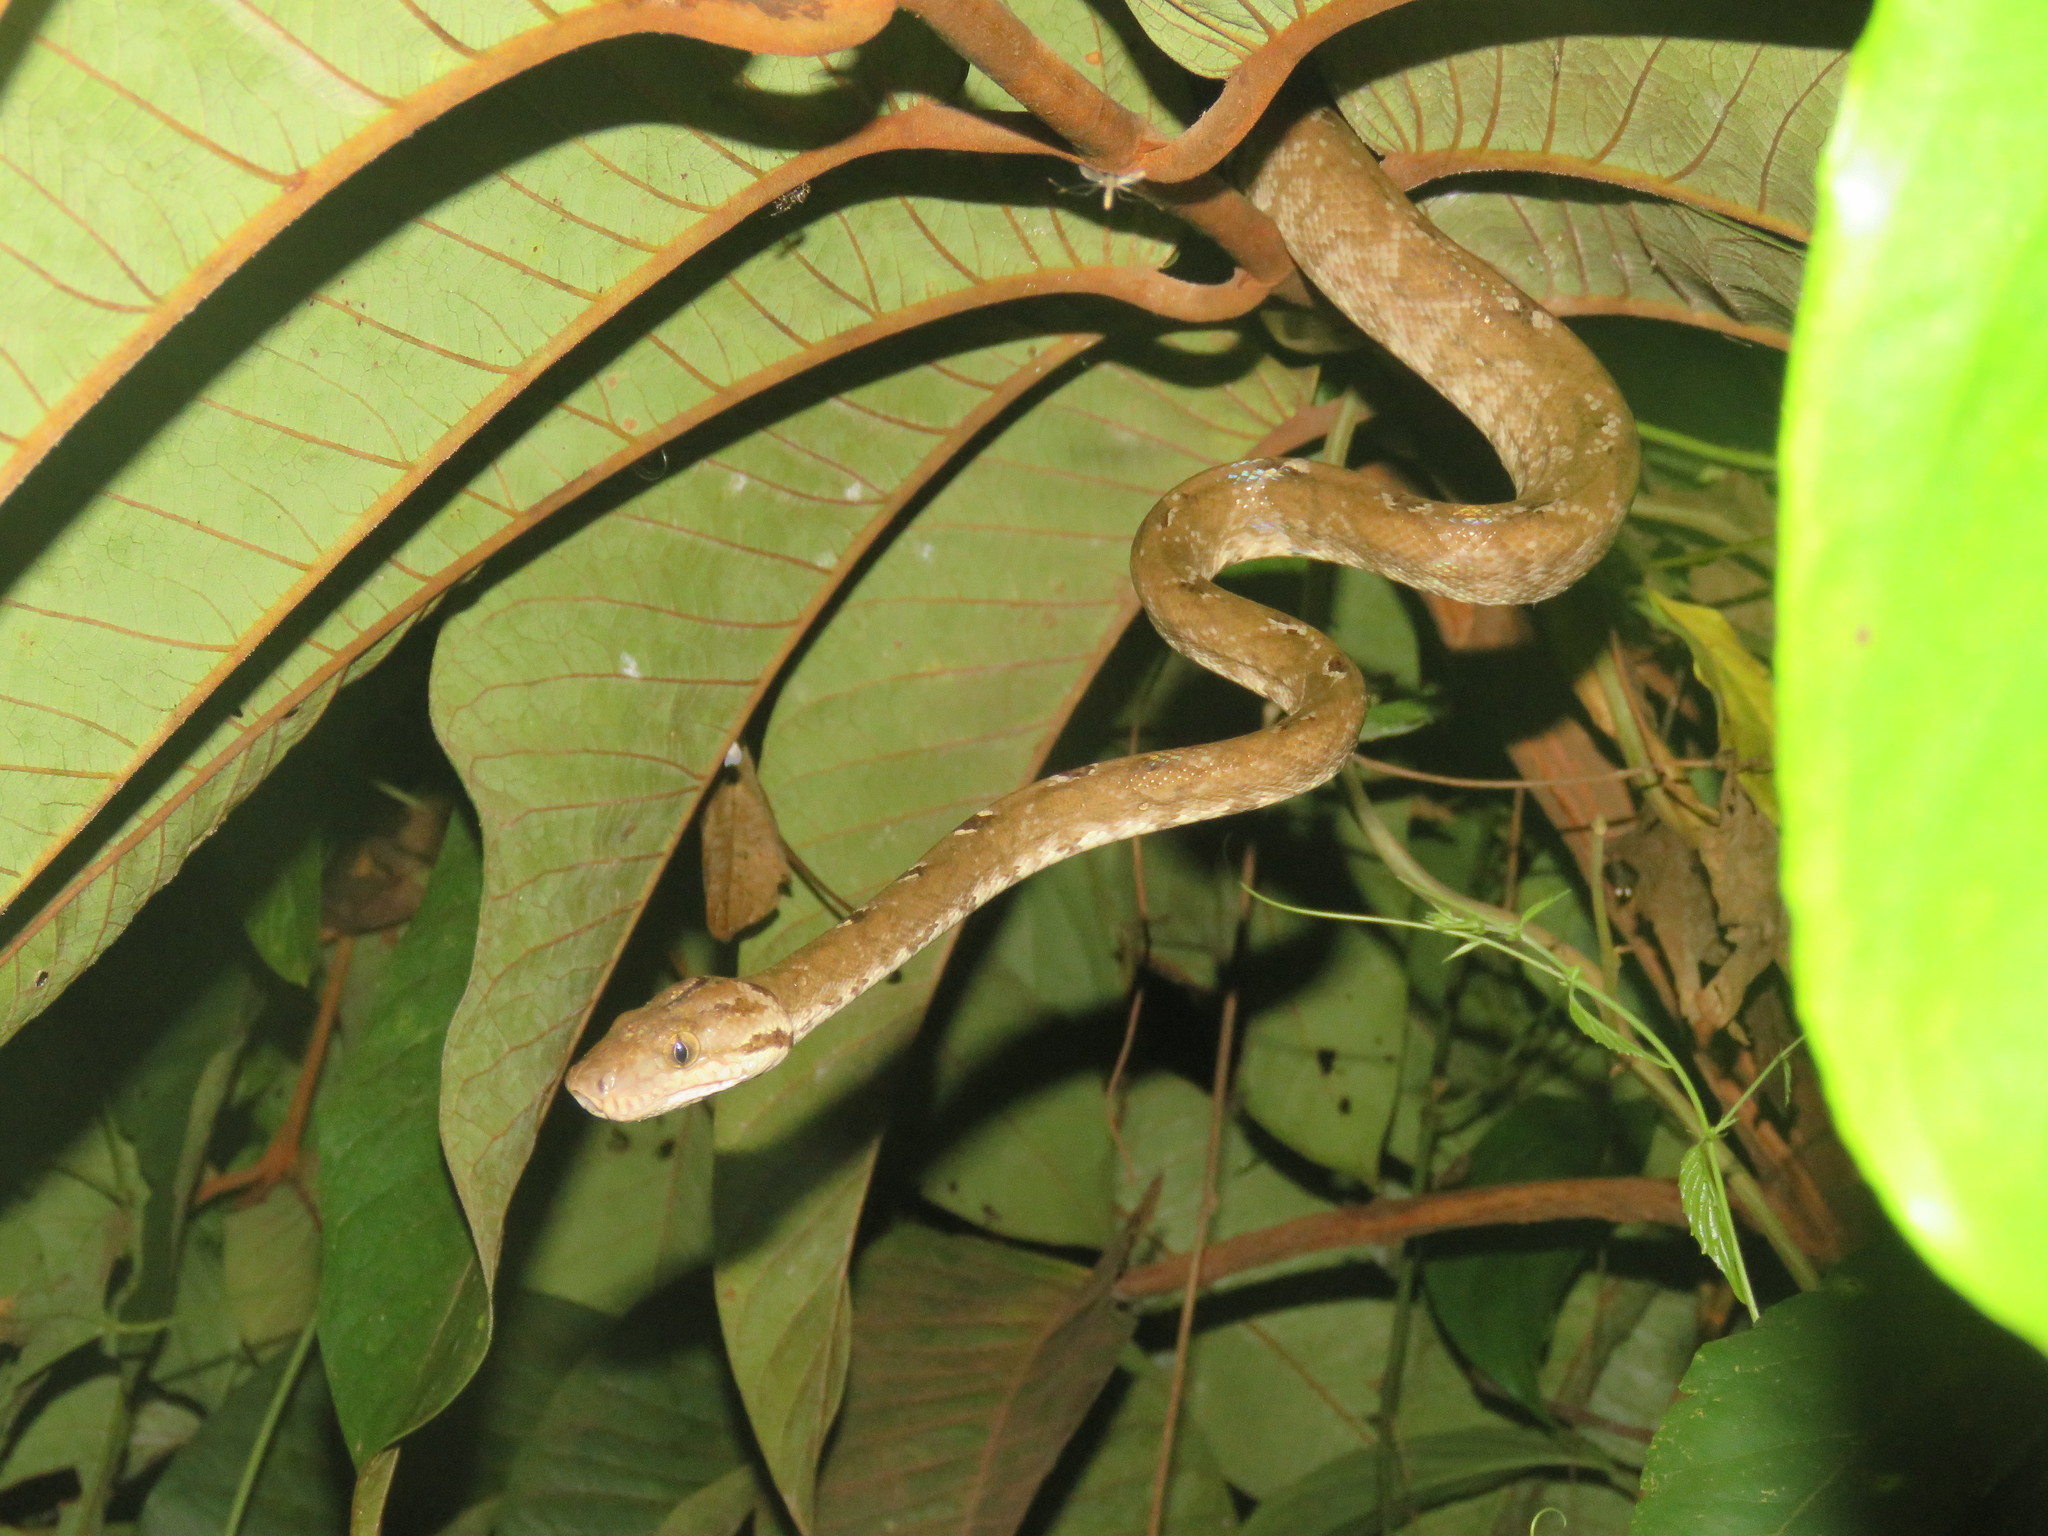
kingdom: Animalia
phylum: Chordata
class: Squamata
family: Boidae
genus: Corallus
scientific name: Corallus hortulana
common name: Garden tree boa
